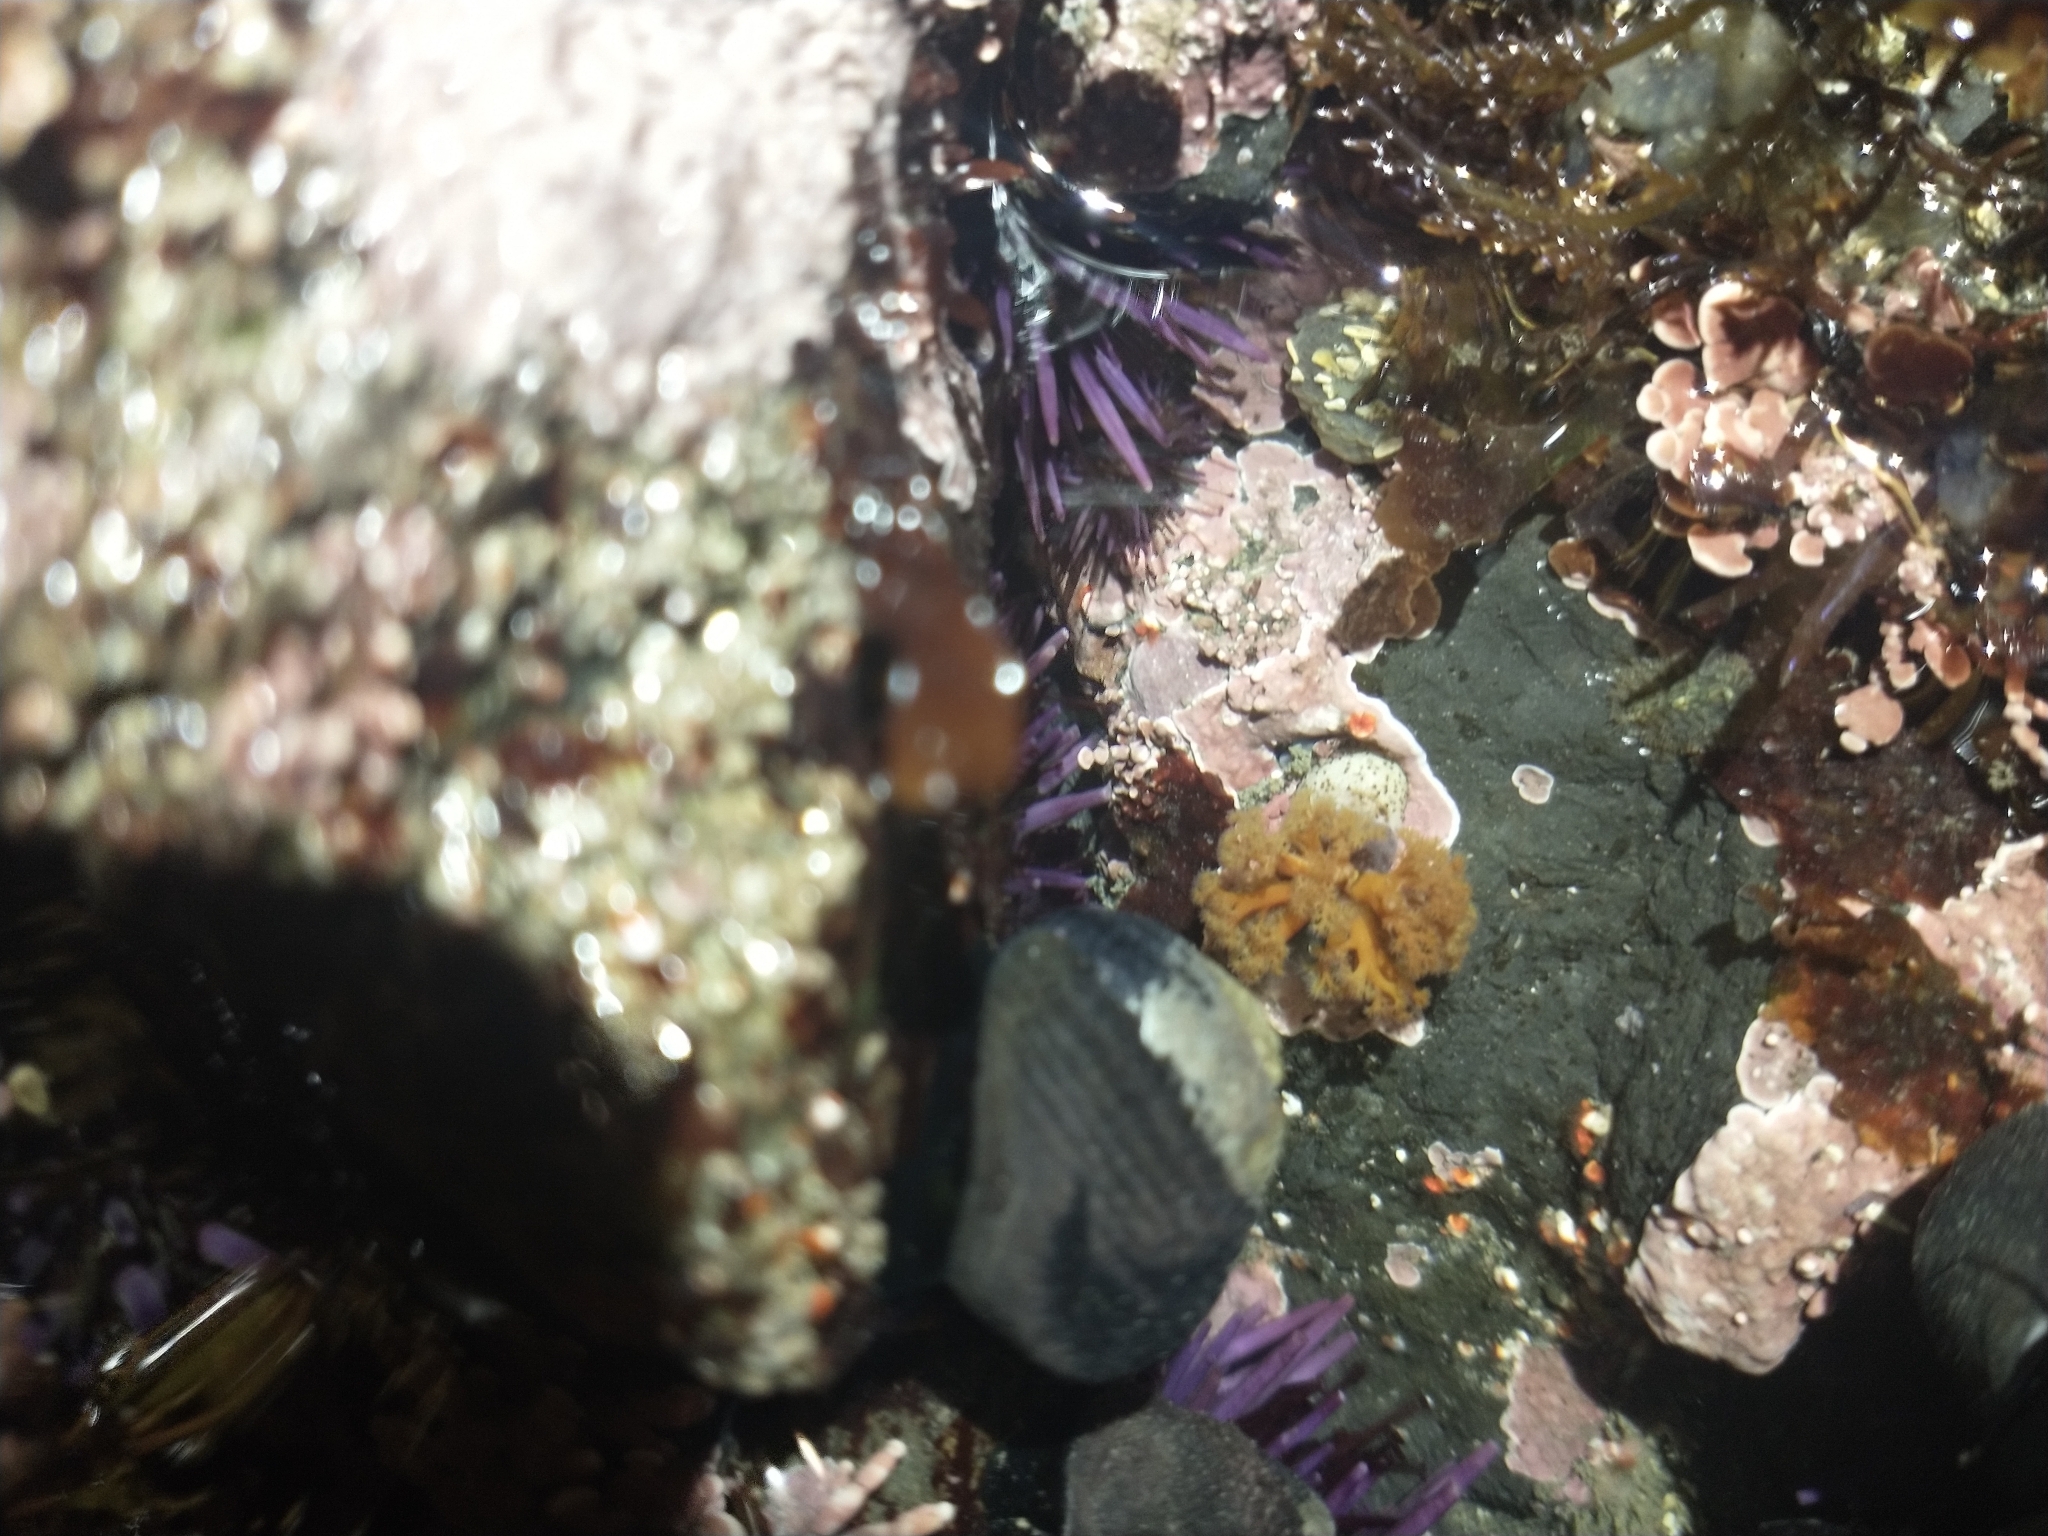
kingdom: Animalia
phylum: Sipuncula
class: Sipunculidea
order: Golfingiiformes
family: Themistidae
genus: Themiste
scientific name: Themiste pyroides
